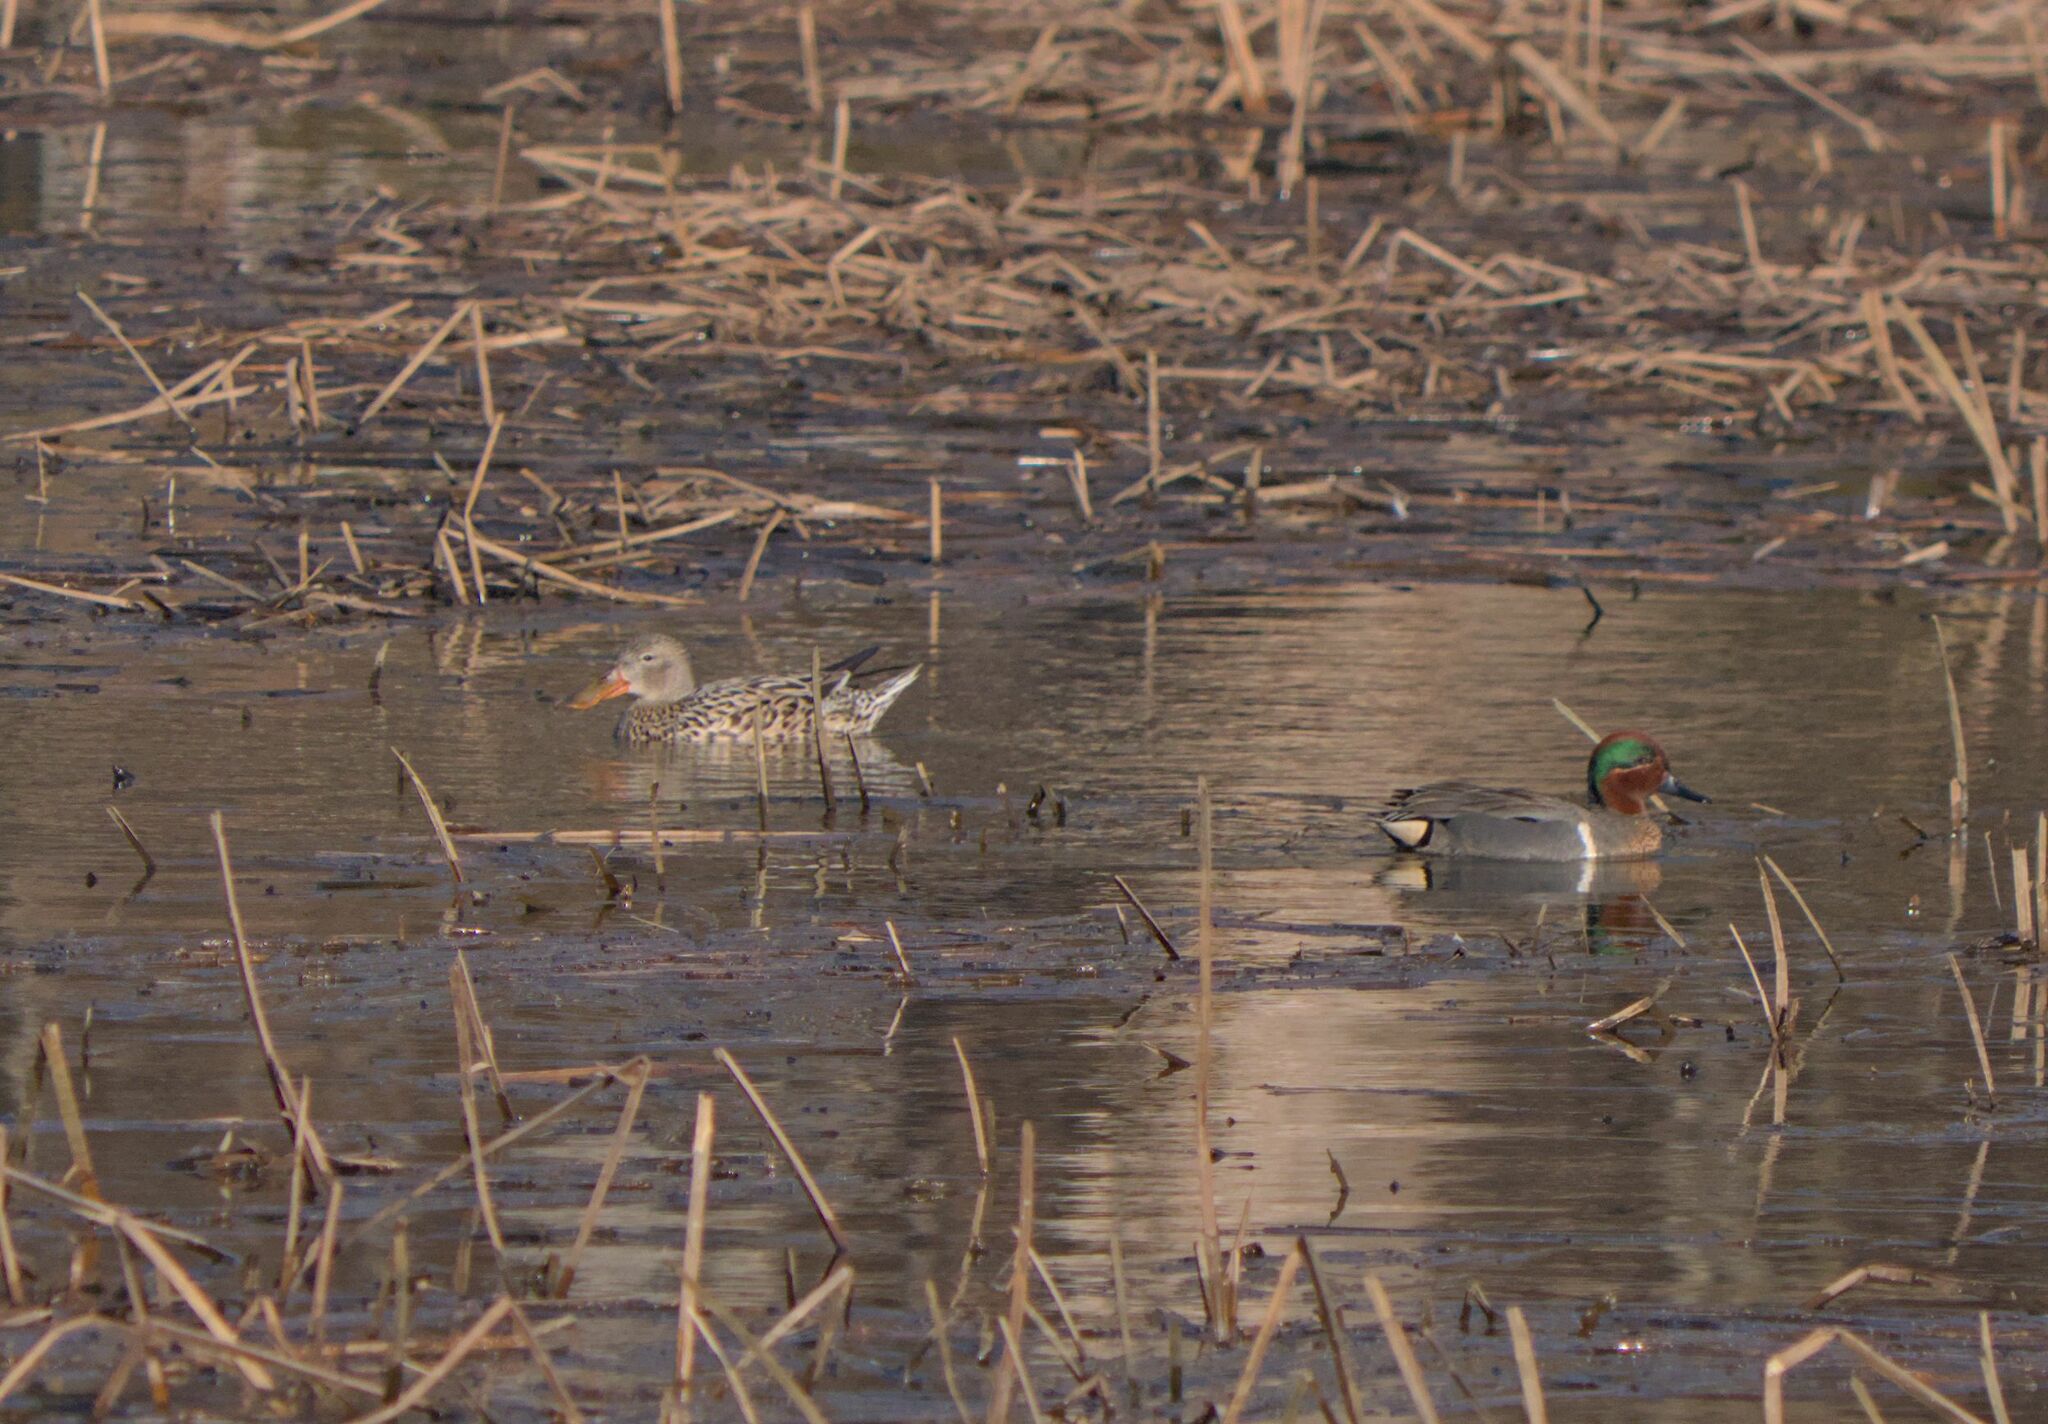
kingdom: Animalia
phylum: Chordata
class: Aves
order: Anseriformes
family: Anatidae
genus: Anas
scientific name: Anas crecca
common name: Eurasian teal
